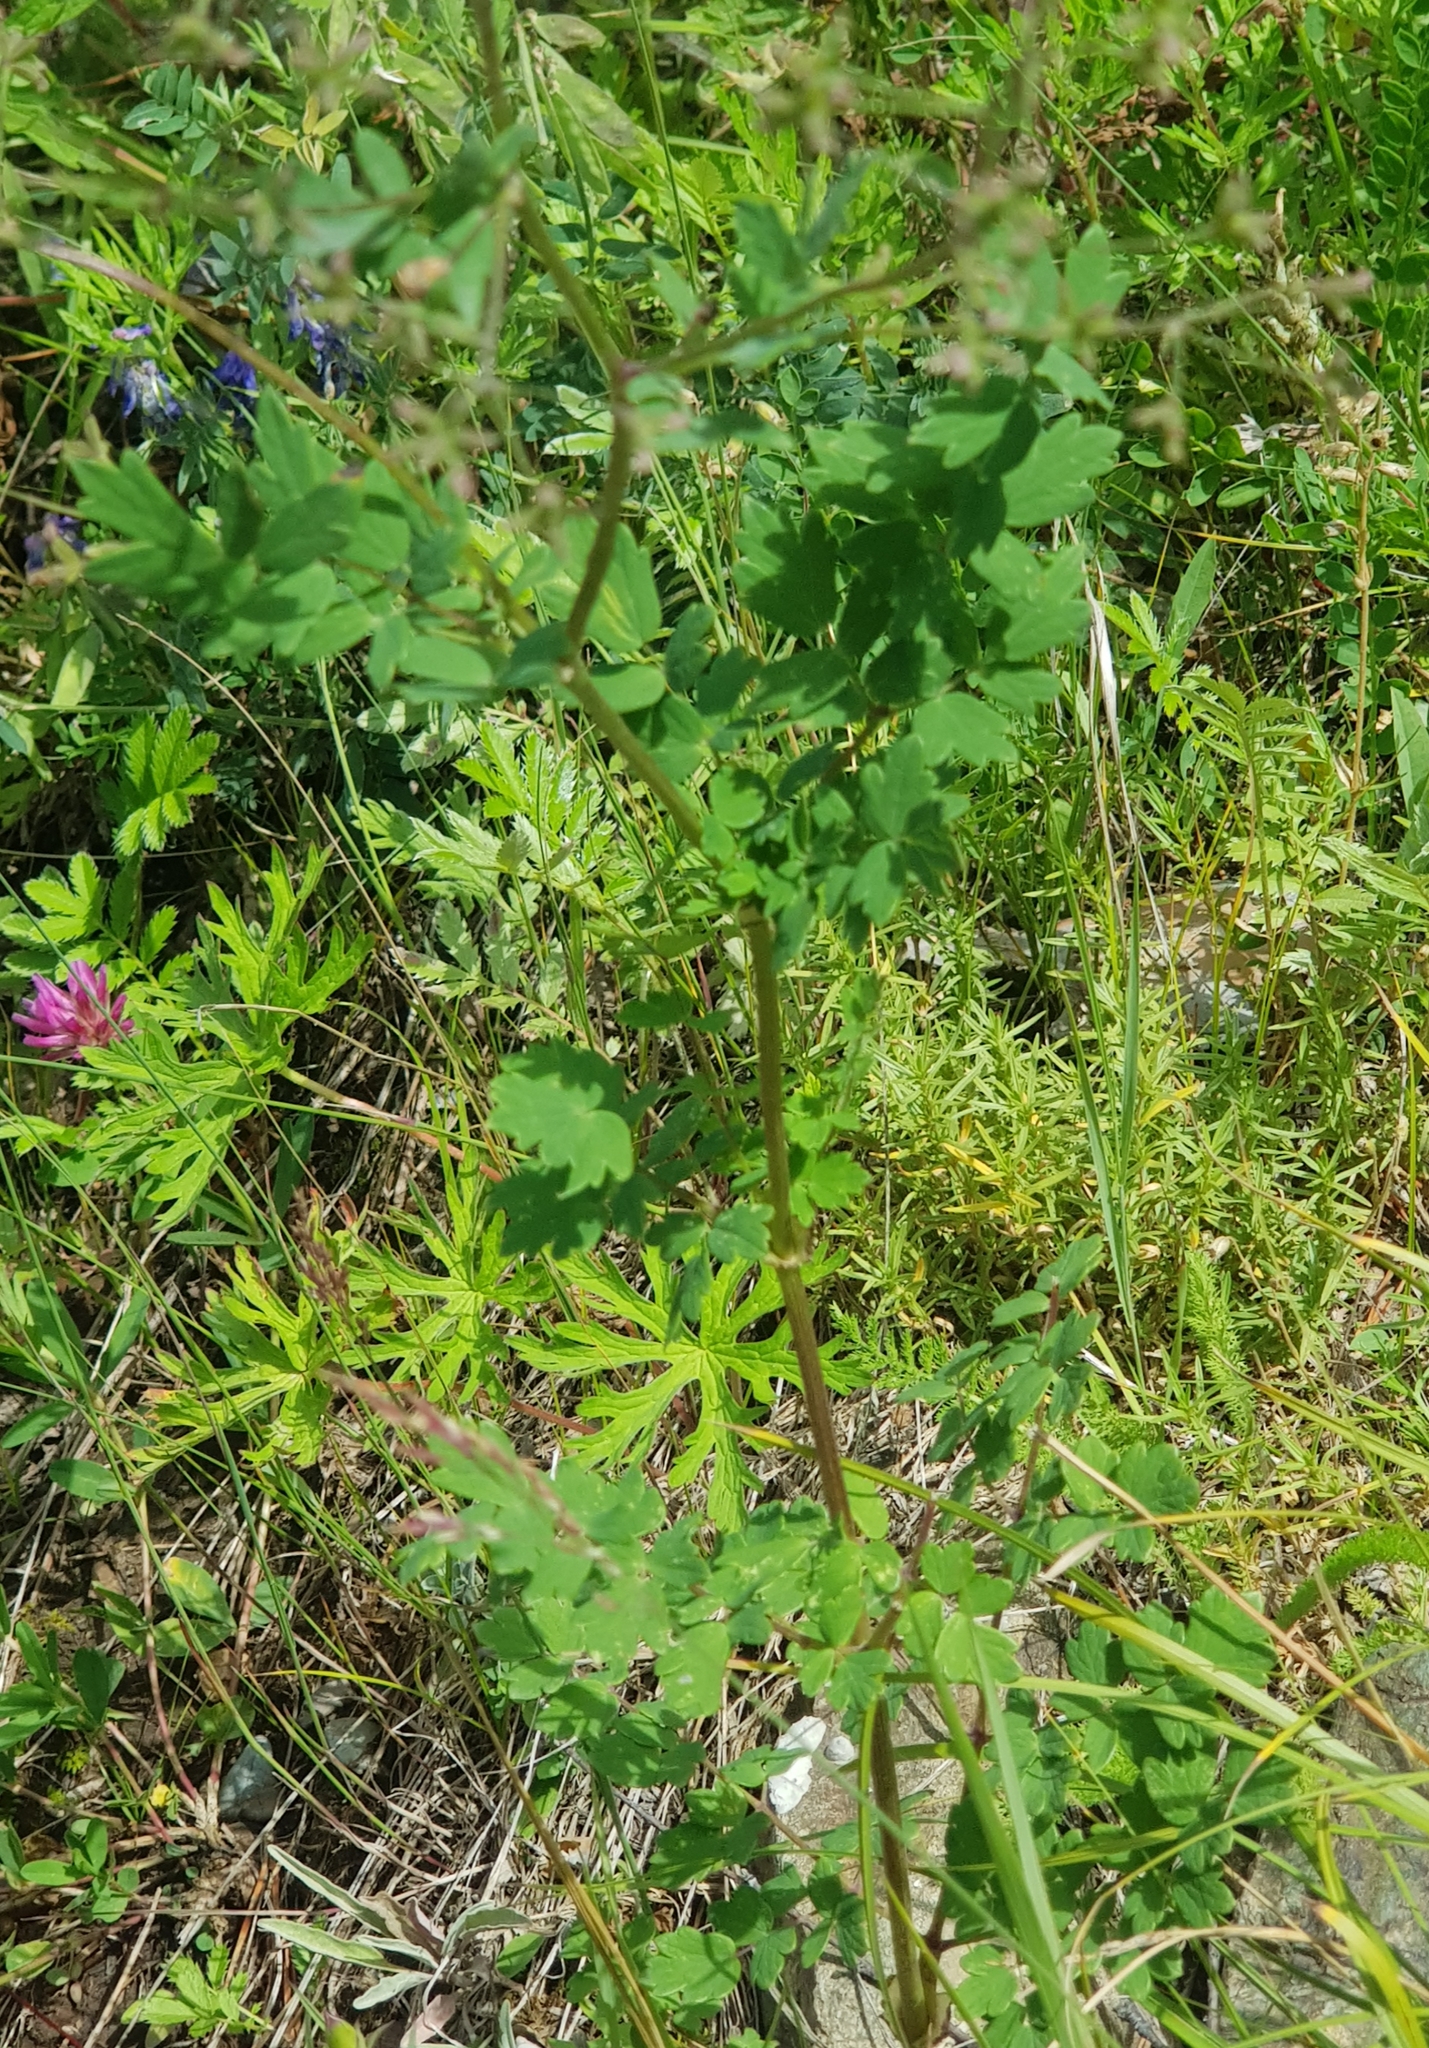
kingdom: Plantae
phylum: Tracheophyta
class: Magnoliopsida
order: Ranunculales
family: Ranunculaceae
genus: Thalictrum
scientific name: Thalictrum simplex
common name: Small meadow-rue
